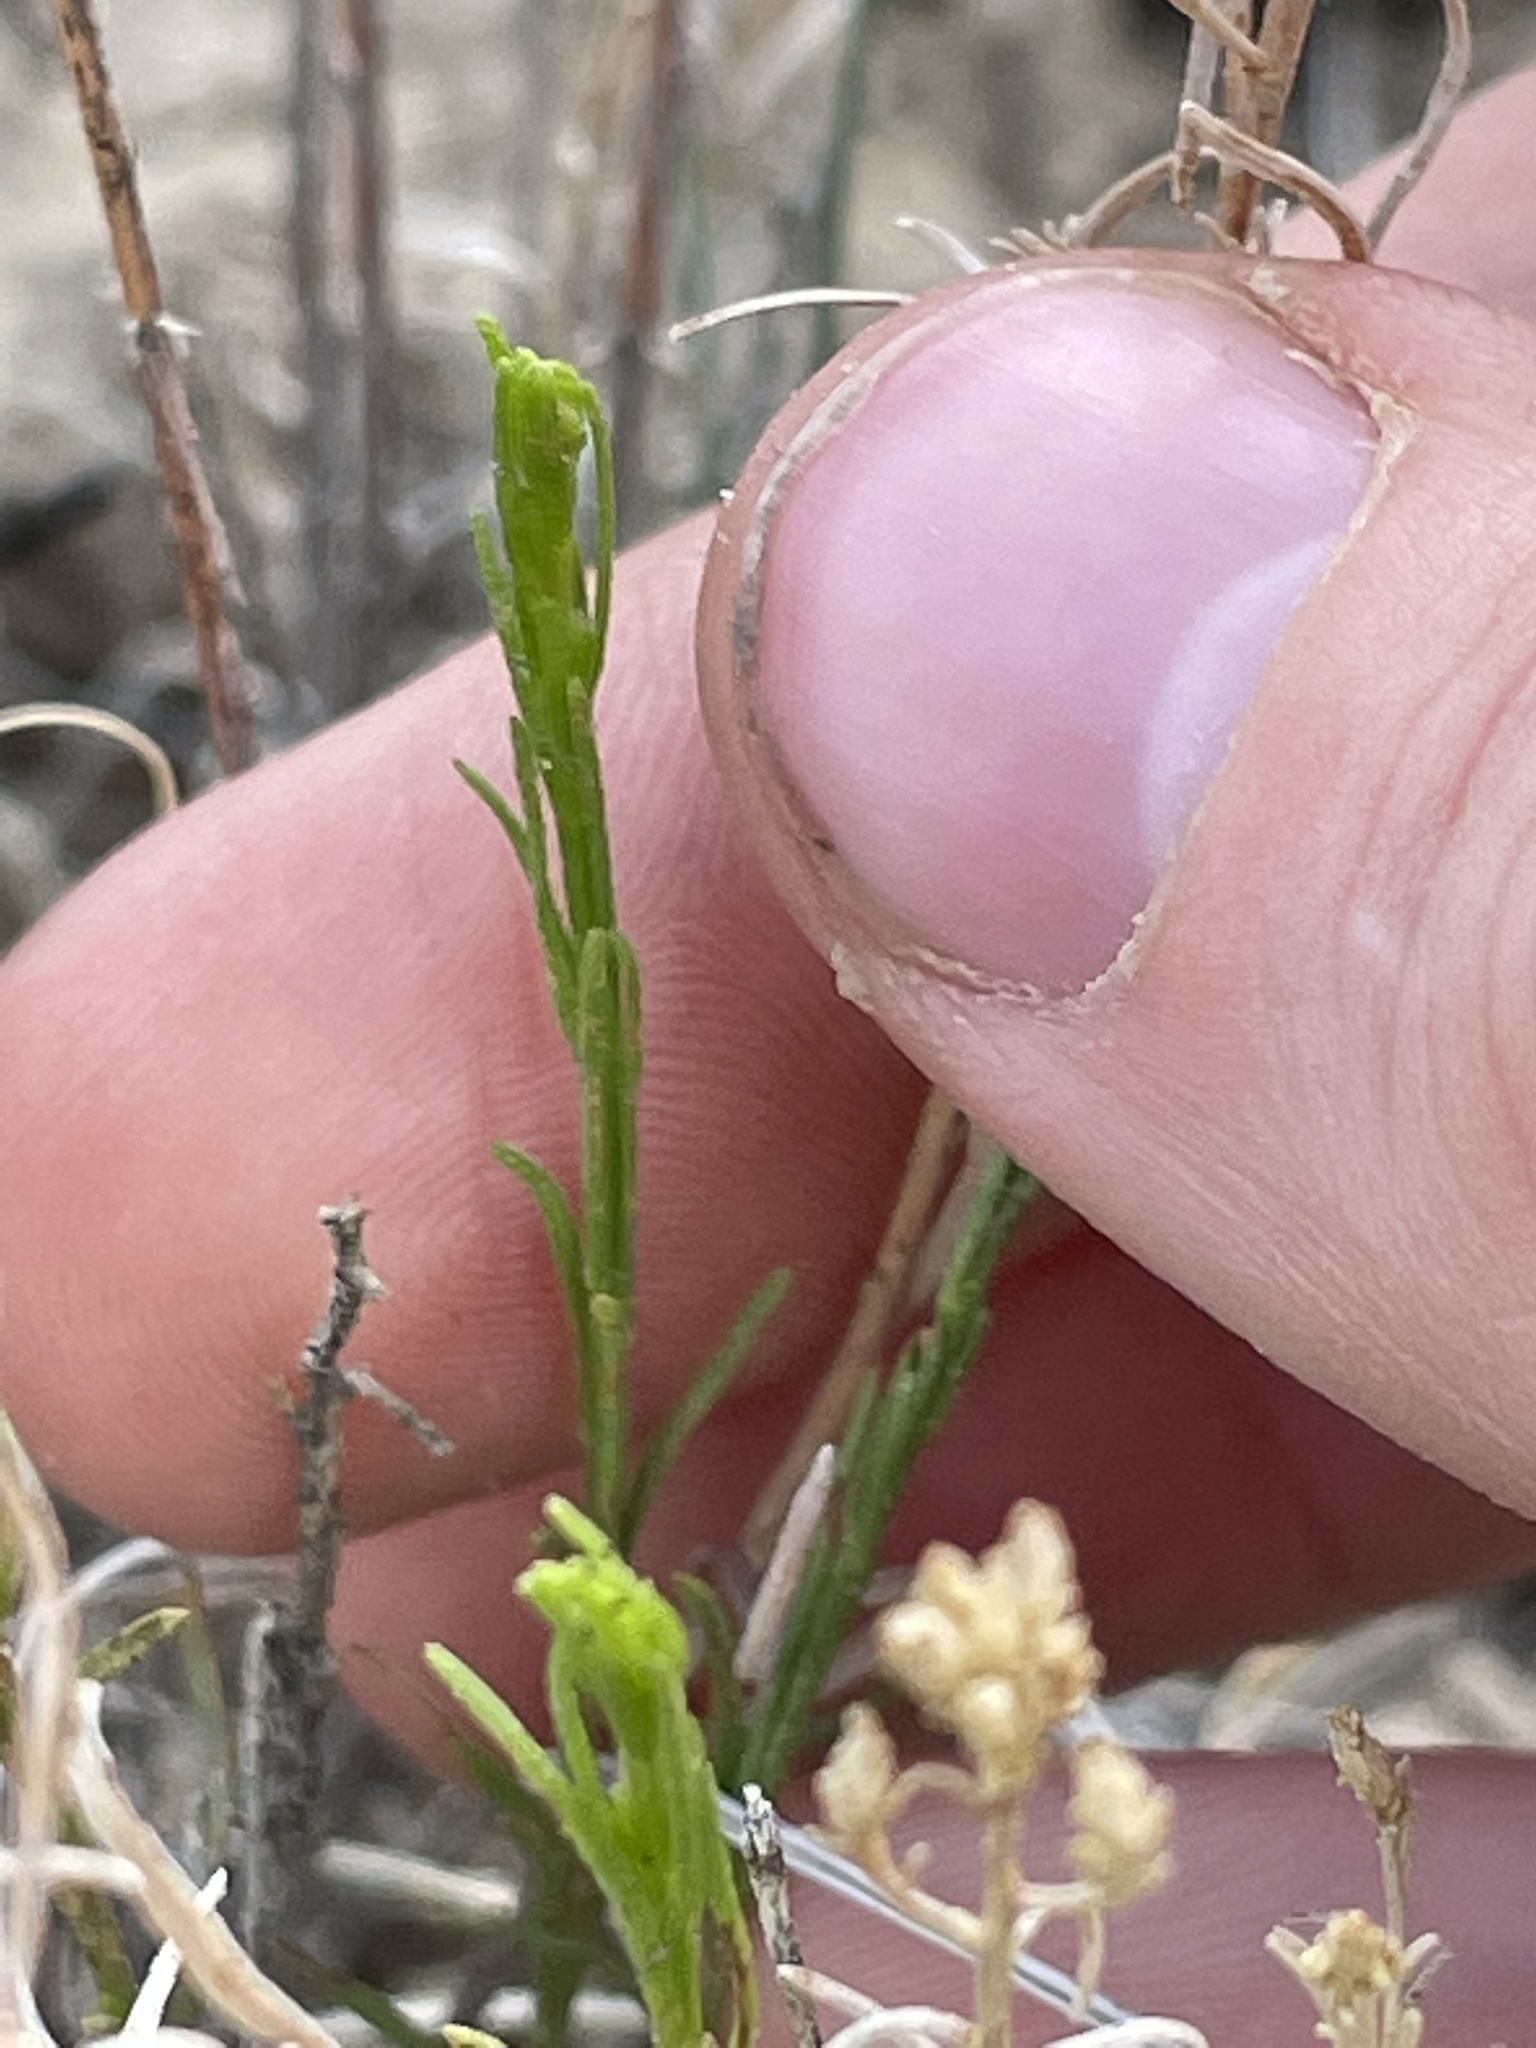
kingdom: Plantae
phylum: Tracheophyta
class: Magnoliopsida
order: Asterales
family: Asteraceae
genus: Gutierrezia
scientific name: Gutierrezia sarothrae
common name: Broom snakeweed
